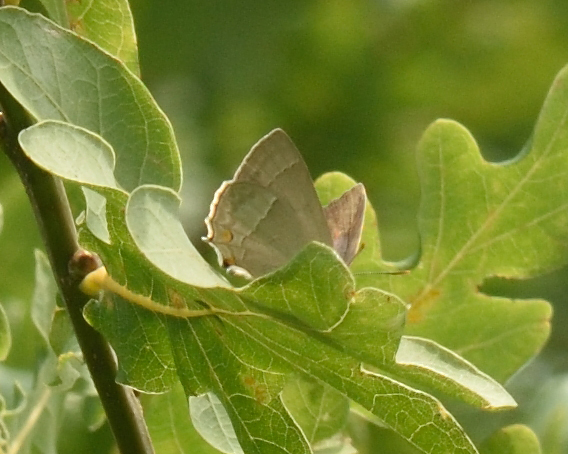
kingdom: Animalia
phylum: Arthropoda
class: Insecta
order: Lepidoptera
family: Lycaenidae
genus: Quercusia
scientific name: Quercusia quercus
